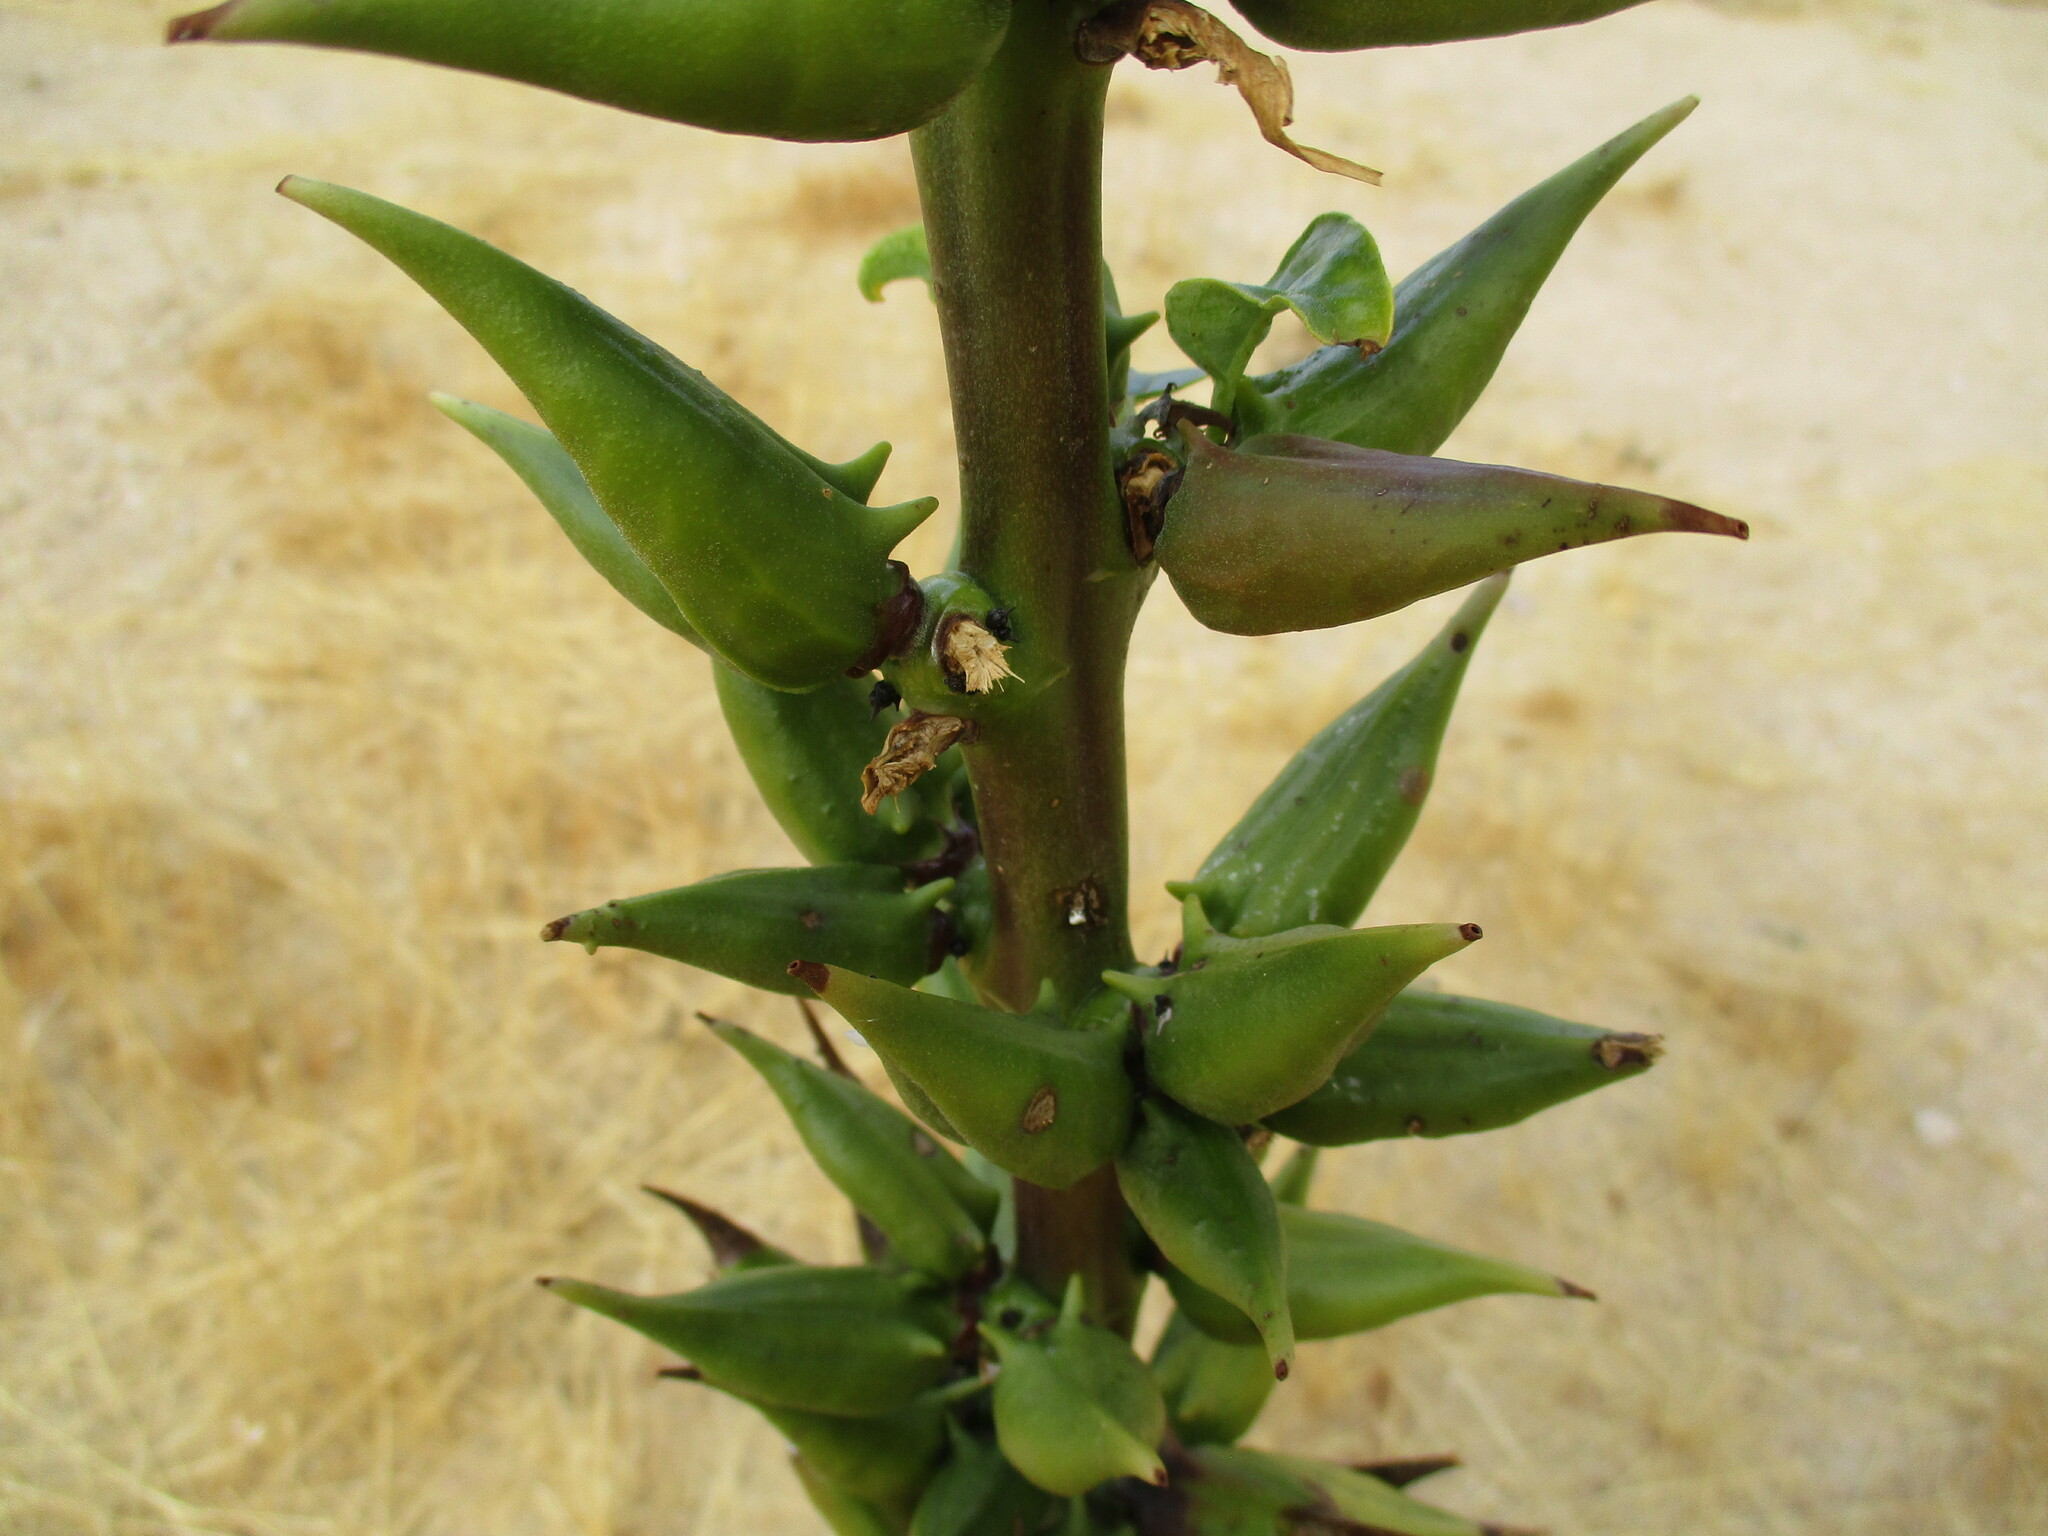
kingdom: Plantae
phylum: Tracheophyta
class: Magnoliopsida
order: Lamiales
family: Pedaliaceae
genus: Rogeria
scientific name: Rogeria longiflora
